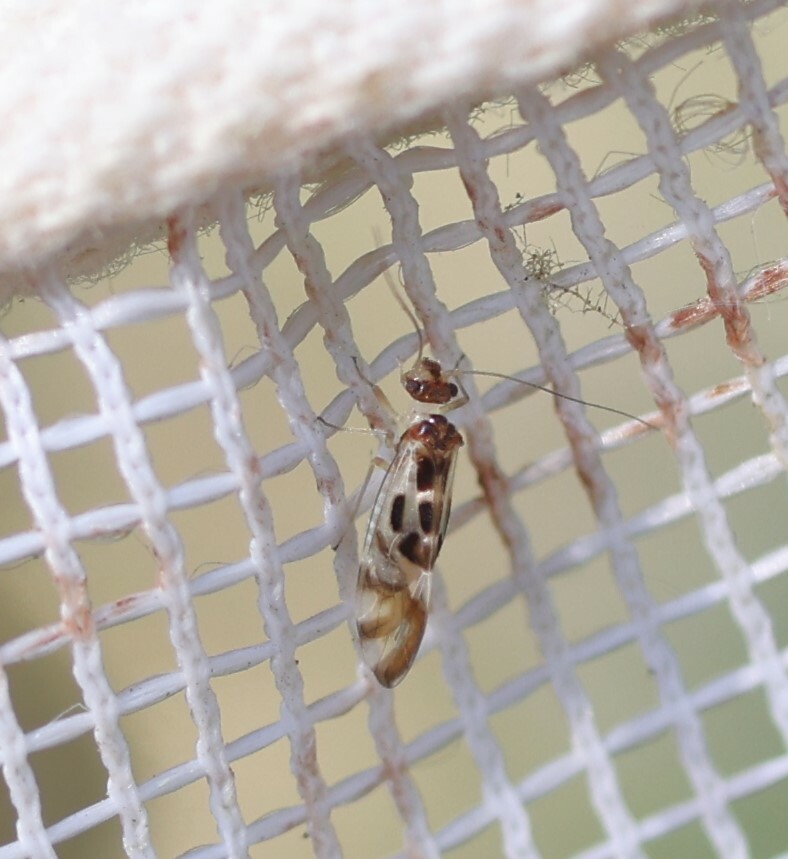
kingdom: Animalia
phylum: Arthropoda
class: Insecta
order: Psocodea
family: Stenopsocidae
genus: Graphopsocus
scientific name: Graphopsocus cruciatus
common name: Lizard bark louse
